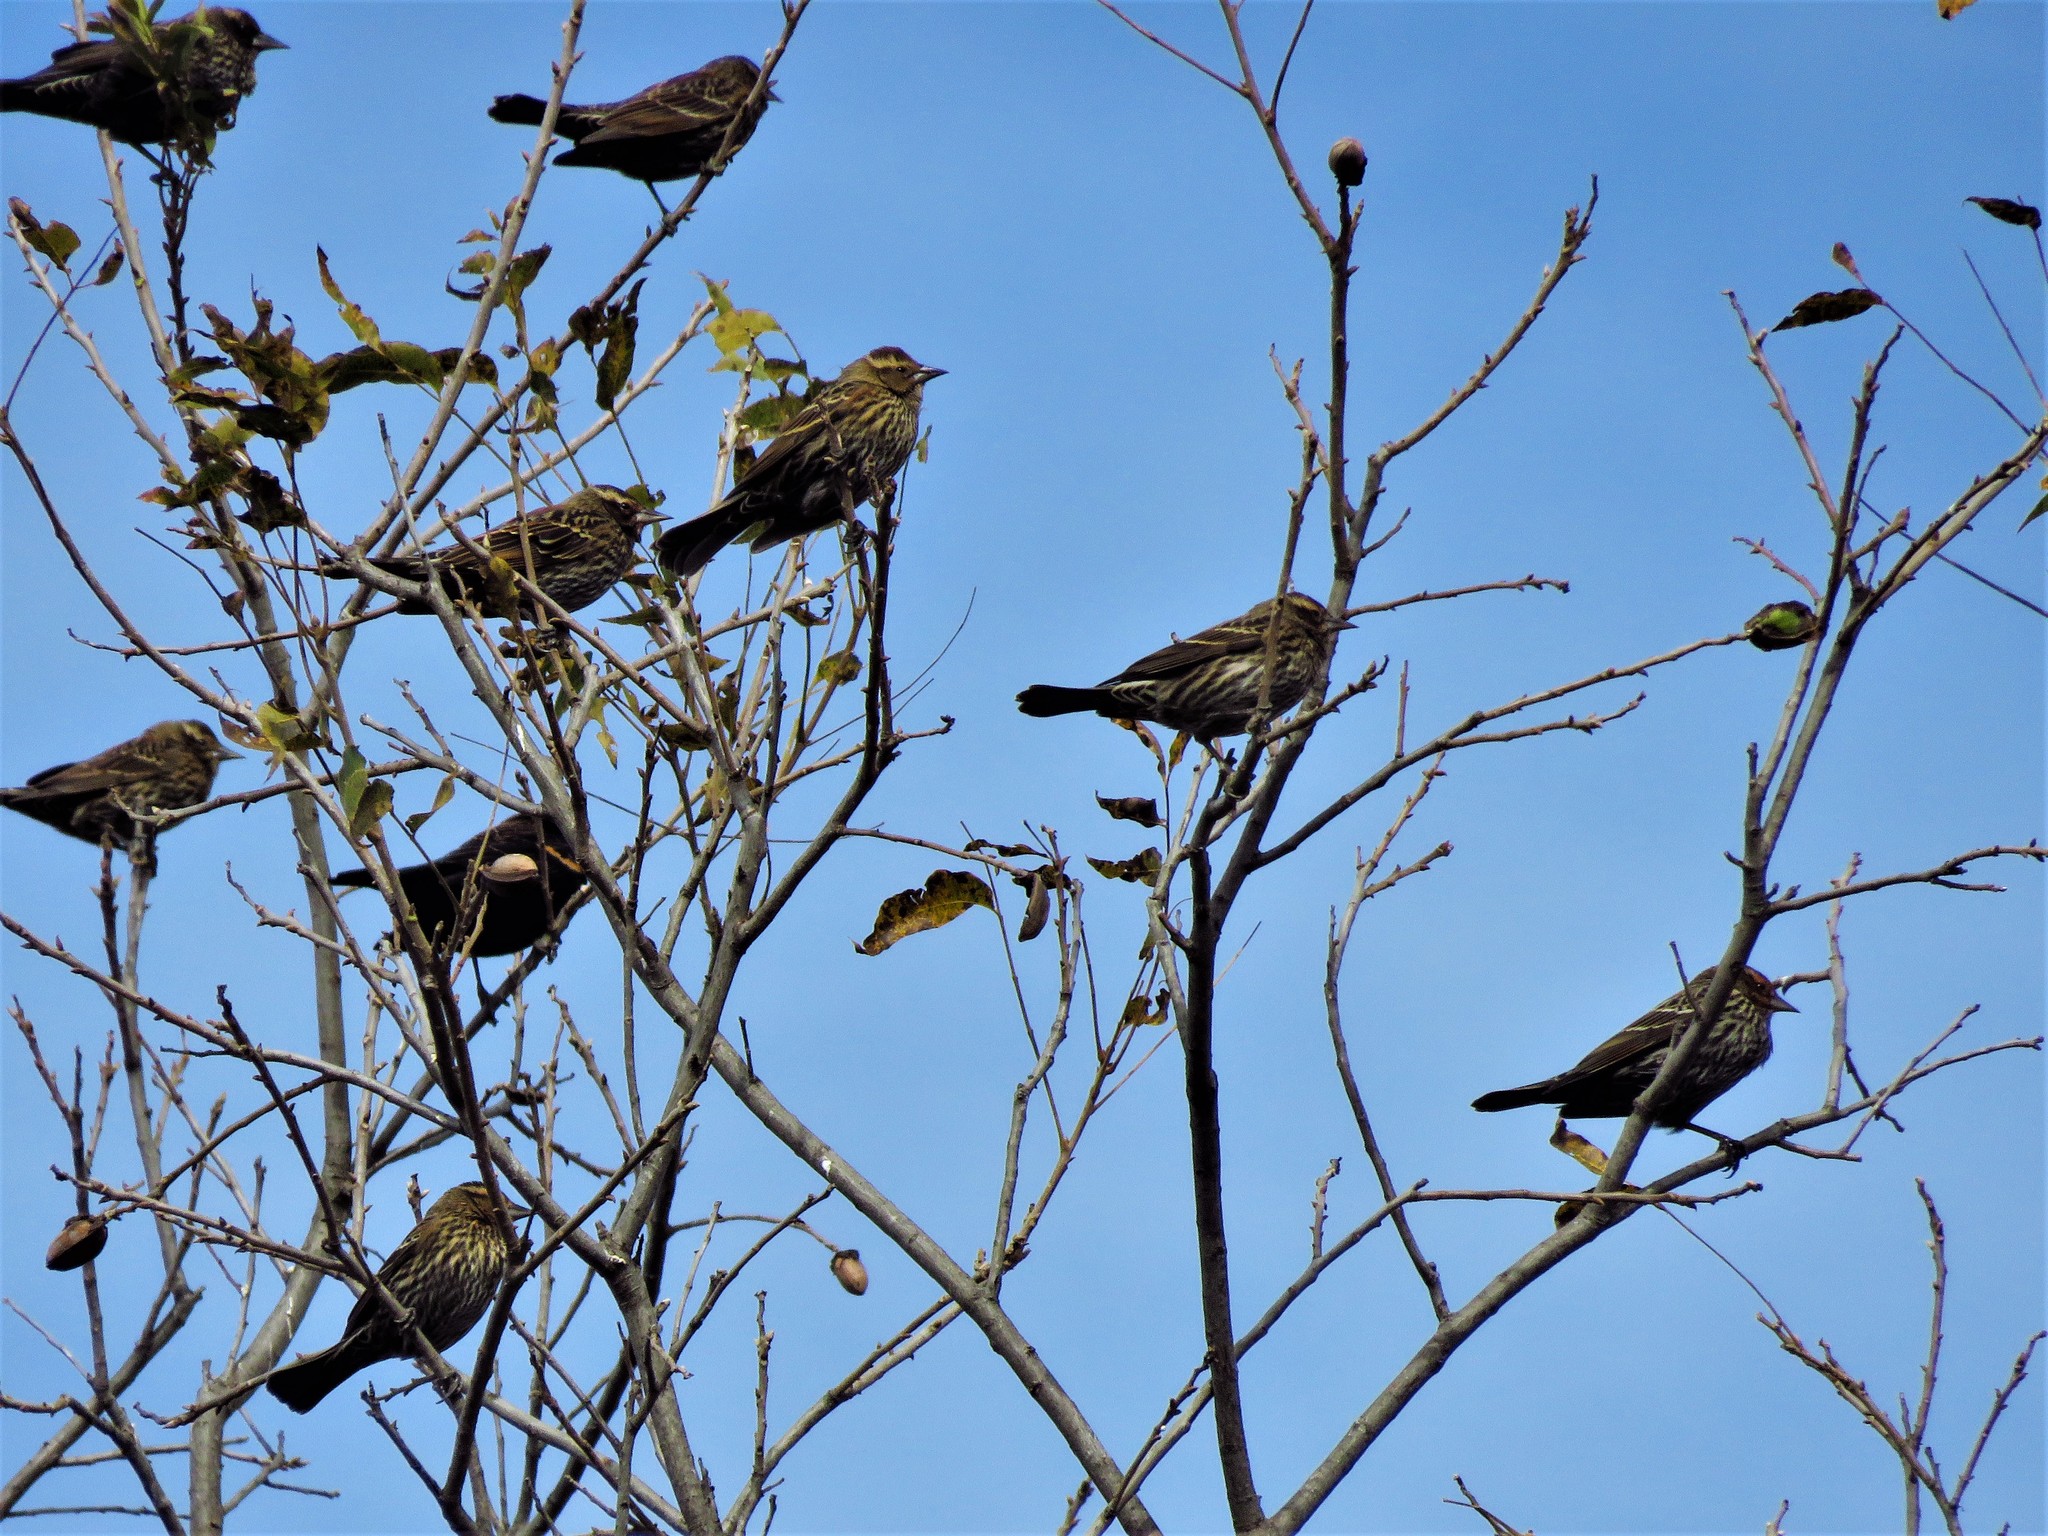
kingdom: Animalia
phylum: Chordata
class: Aves
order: Passeriformes
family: Icteridae
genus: Agelaius
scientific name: Agelaius phoeniceus
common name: Red-winged blackbird
